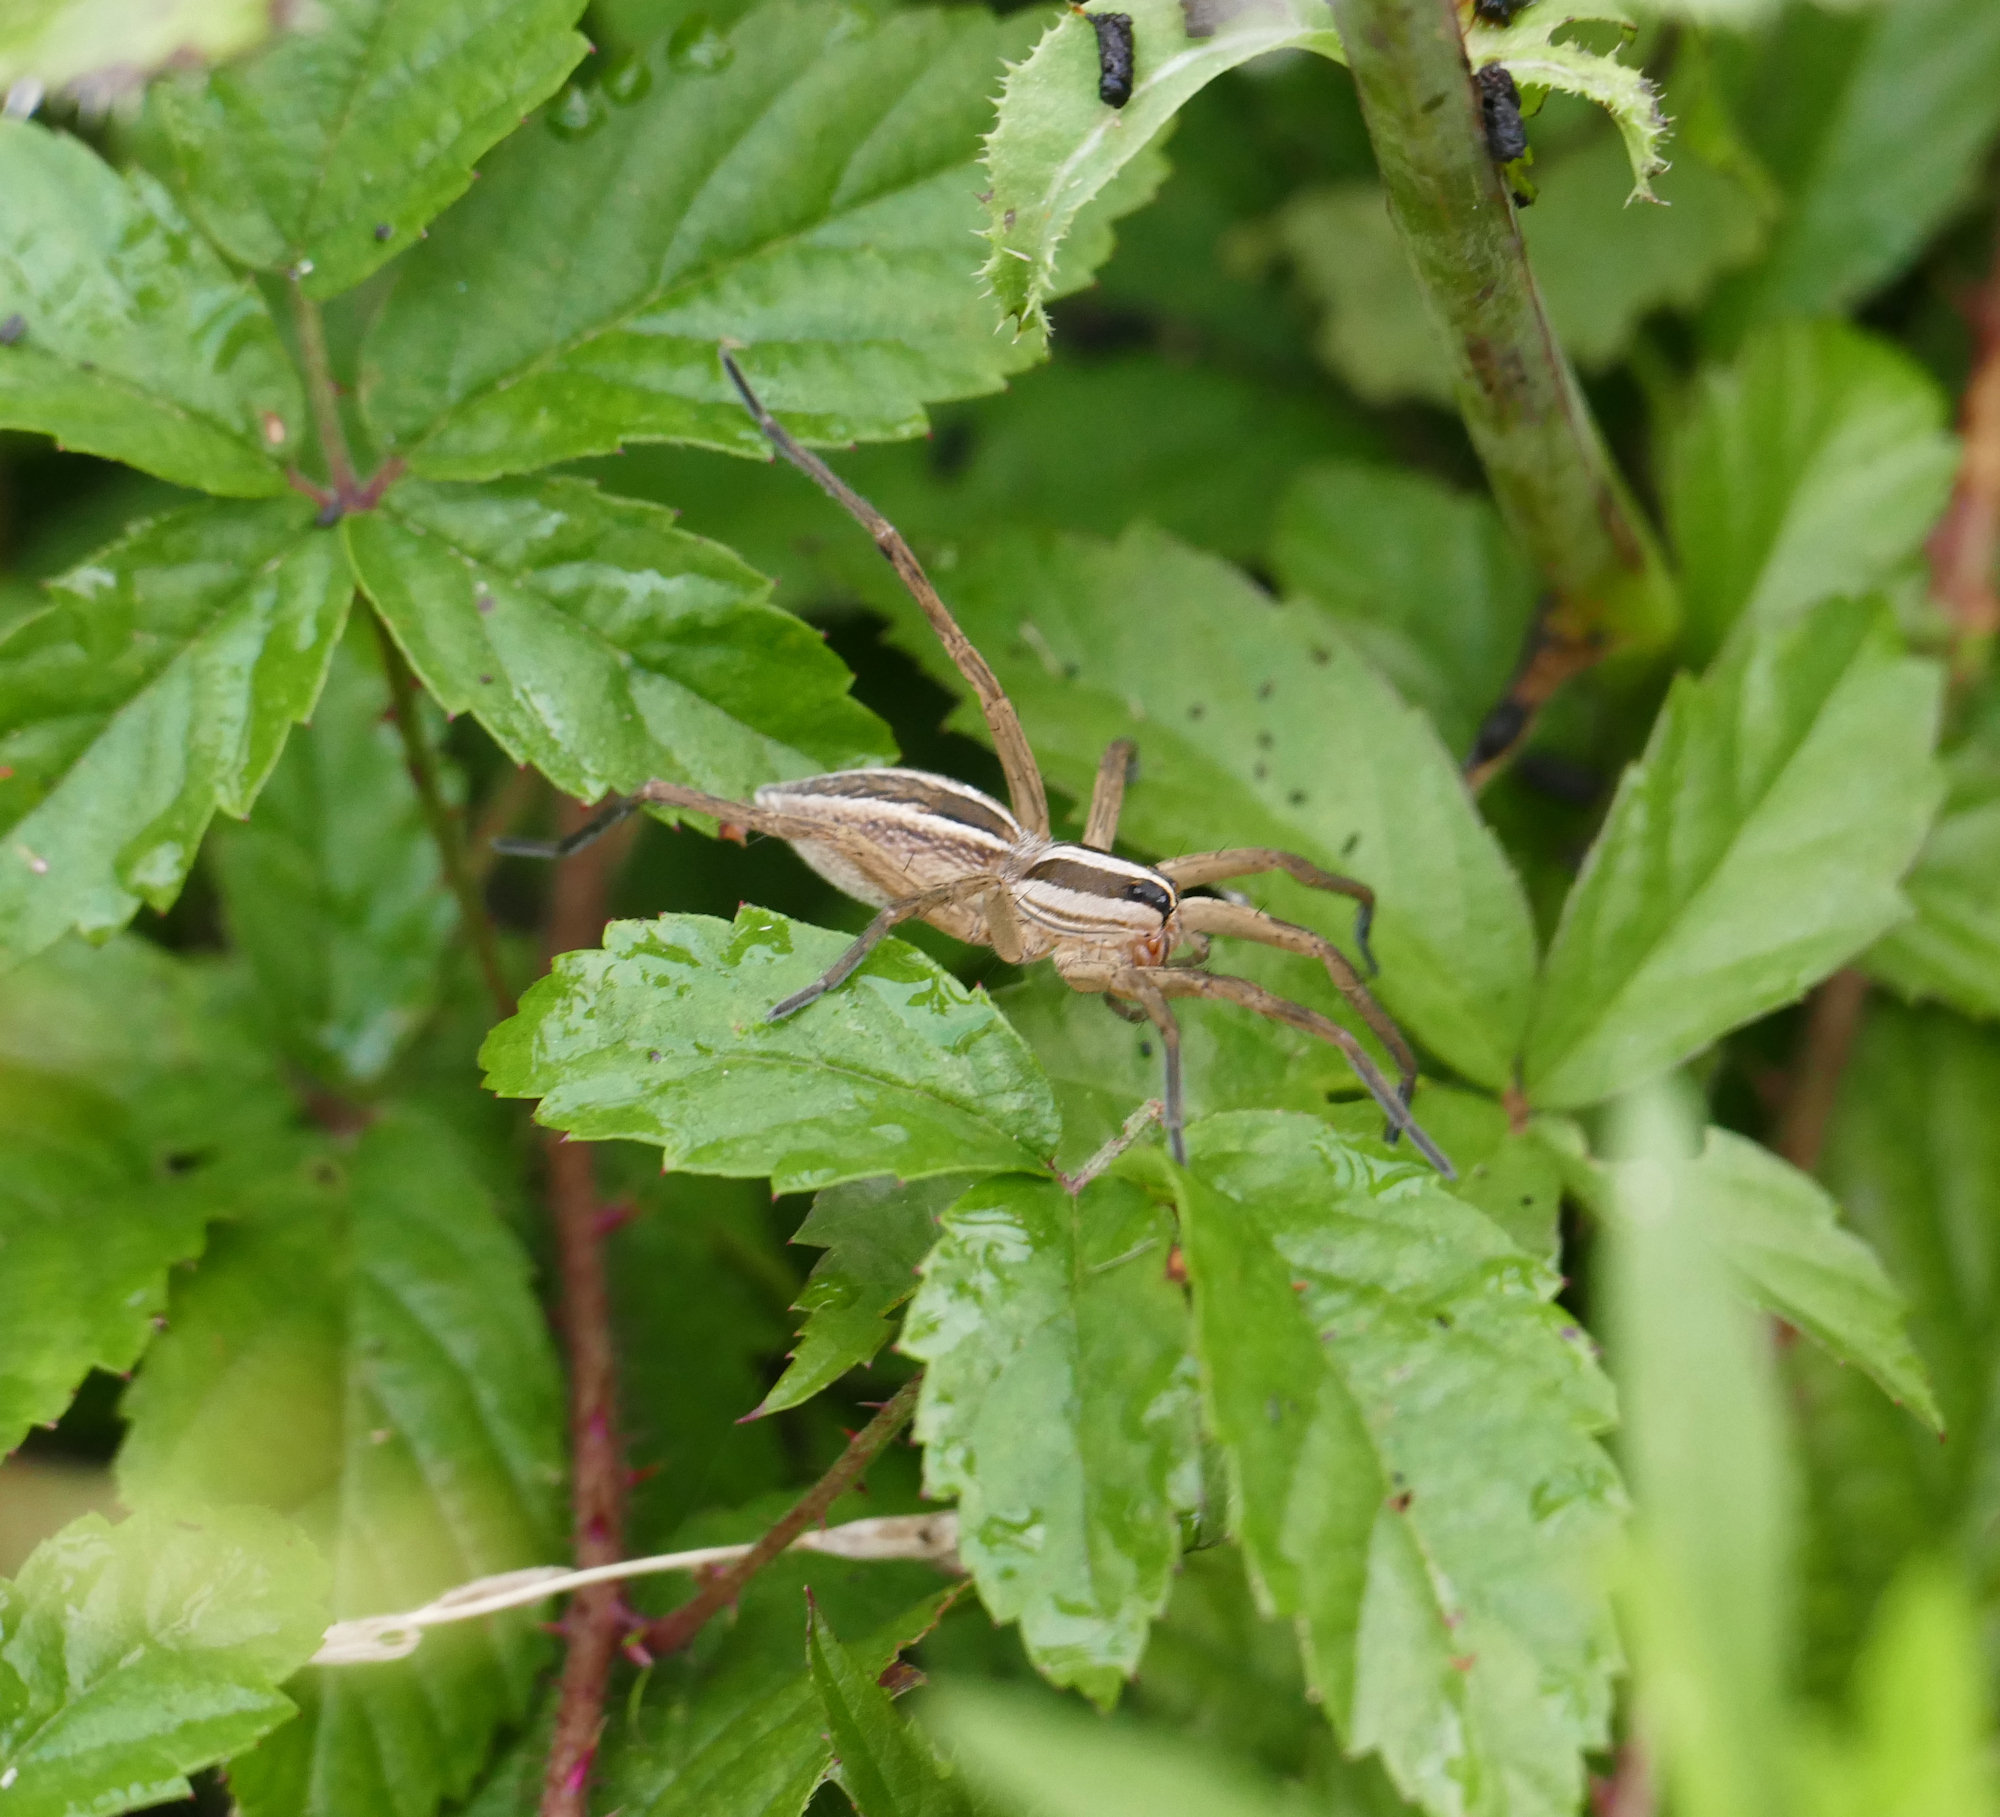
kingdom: Animalia
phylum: Arthropoda
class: Arachnida
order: Araneae
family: Lycosidae
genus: Rabidosa
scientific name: Rabidosa rabida
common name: Rabid wolf spider
